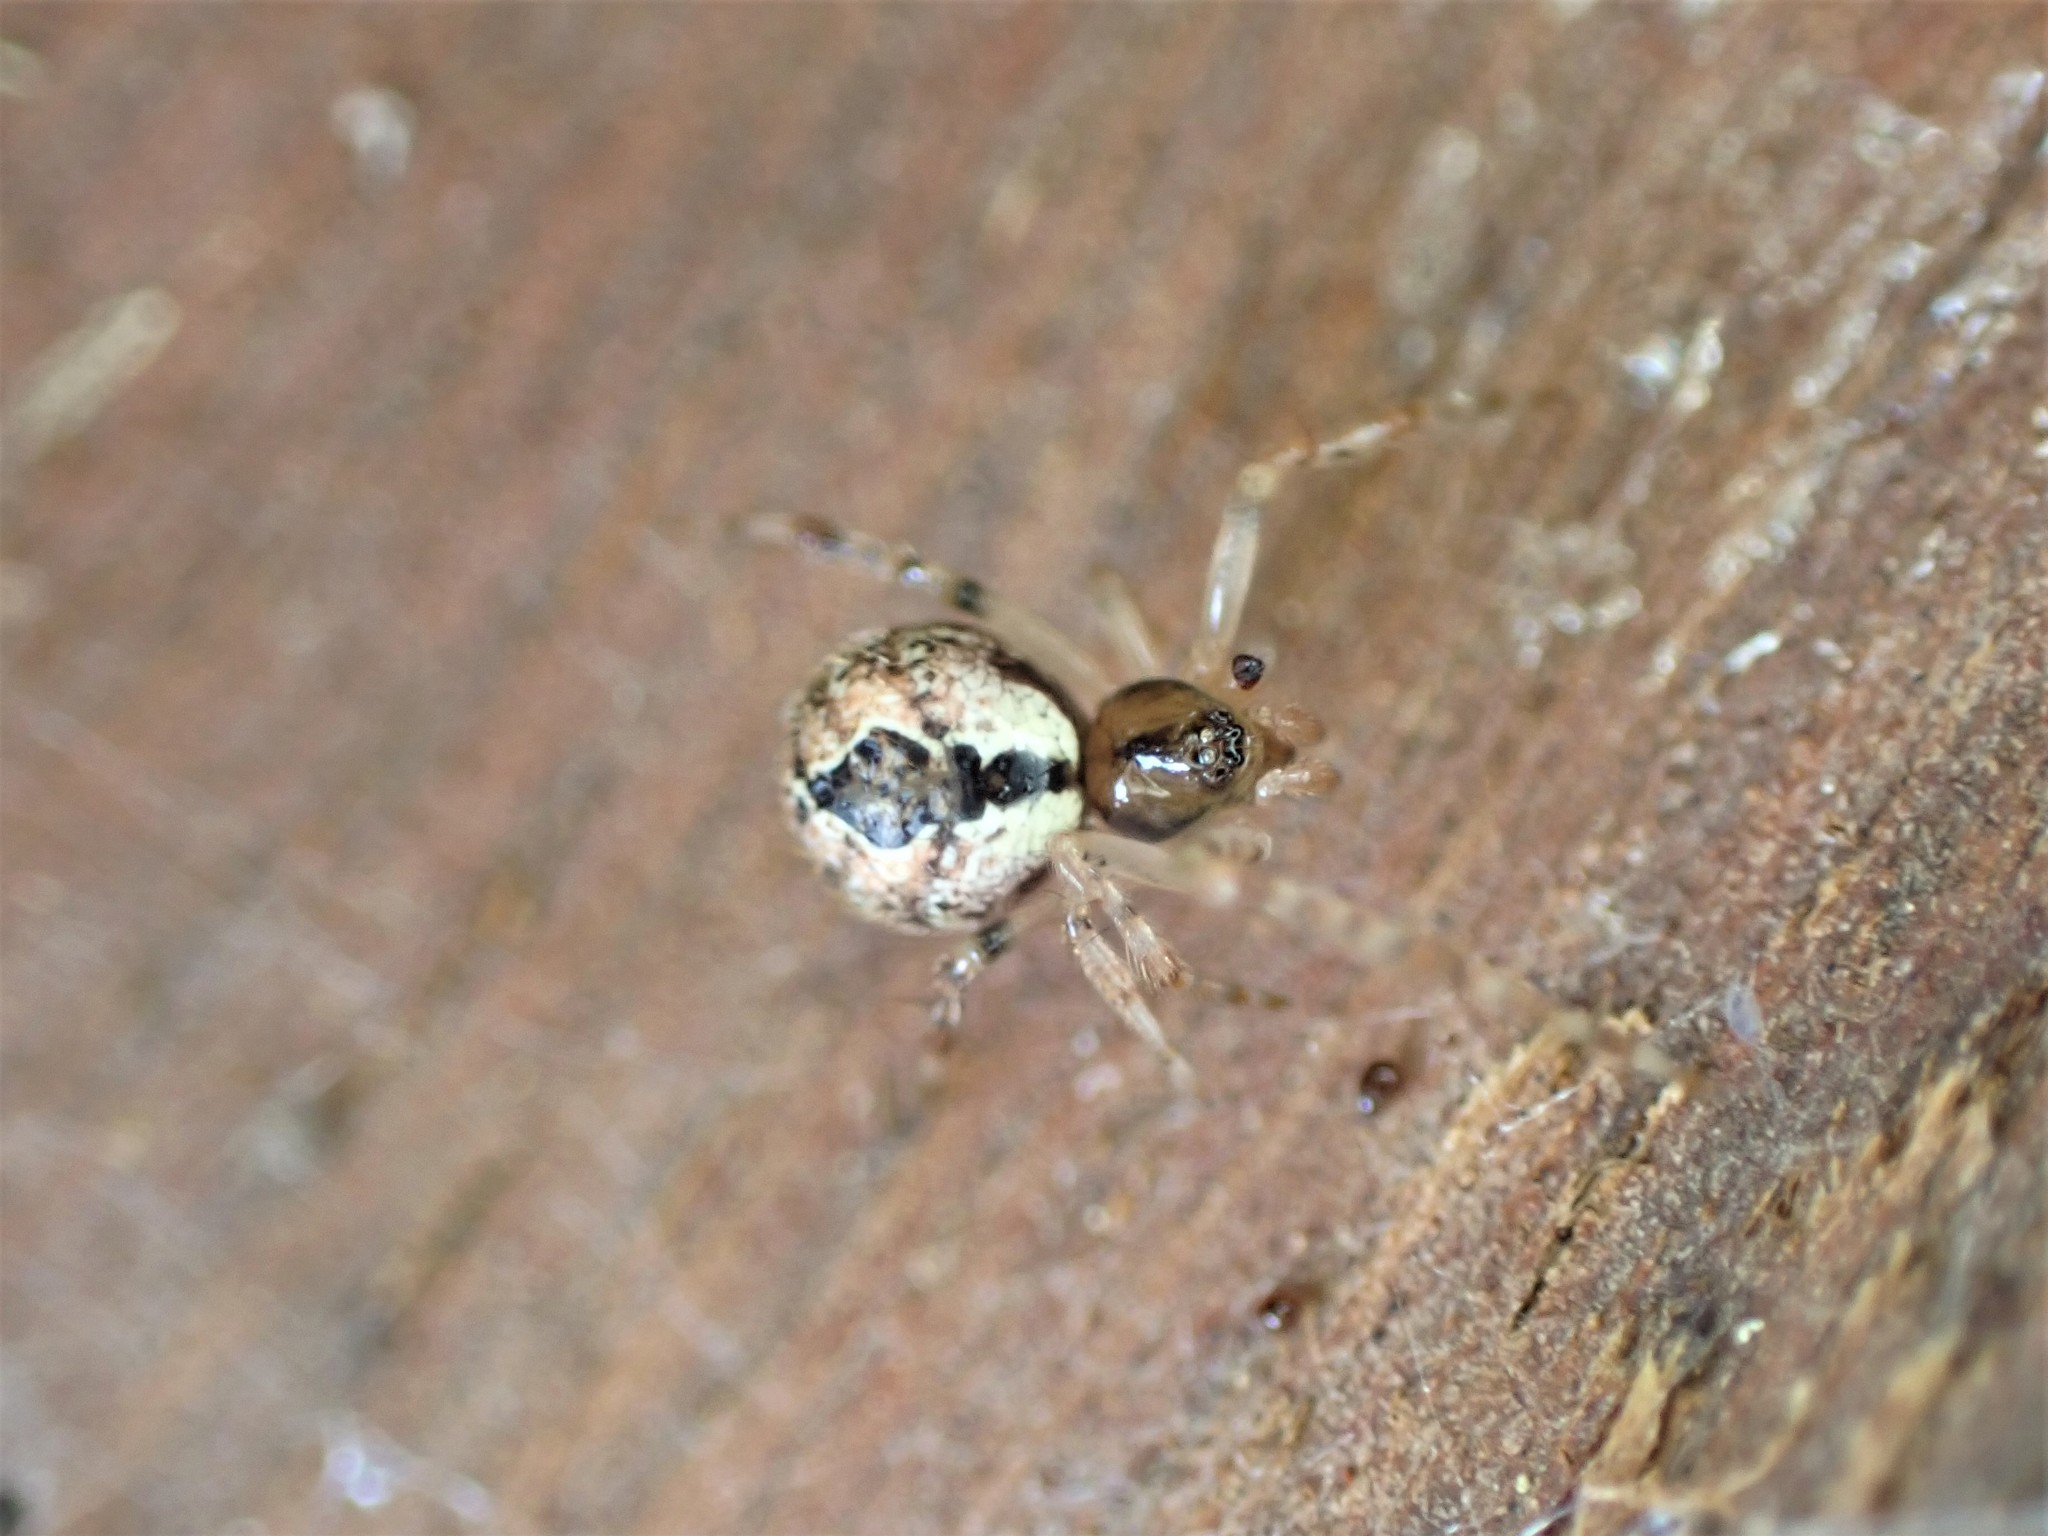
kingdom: Animalia
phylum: Arthropoda
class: Arachnida
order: Araneae
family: Theridiidae
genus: Cryptachaea
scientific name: Cryptachaea veruculata
